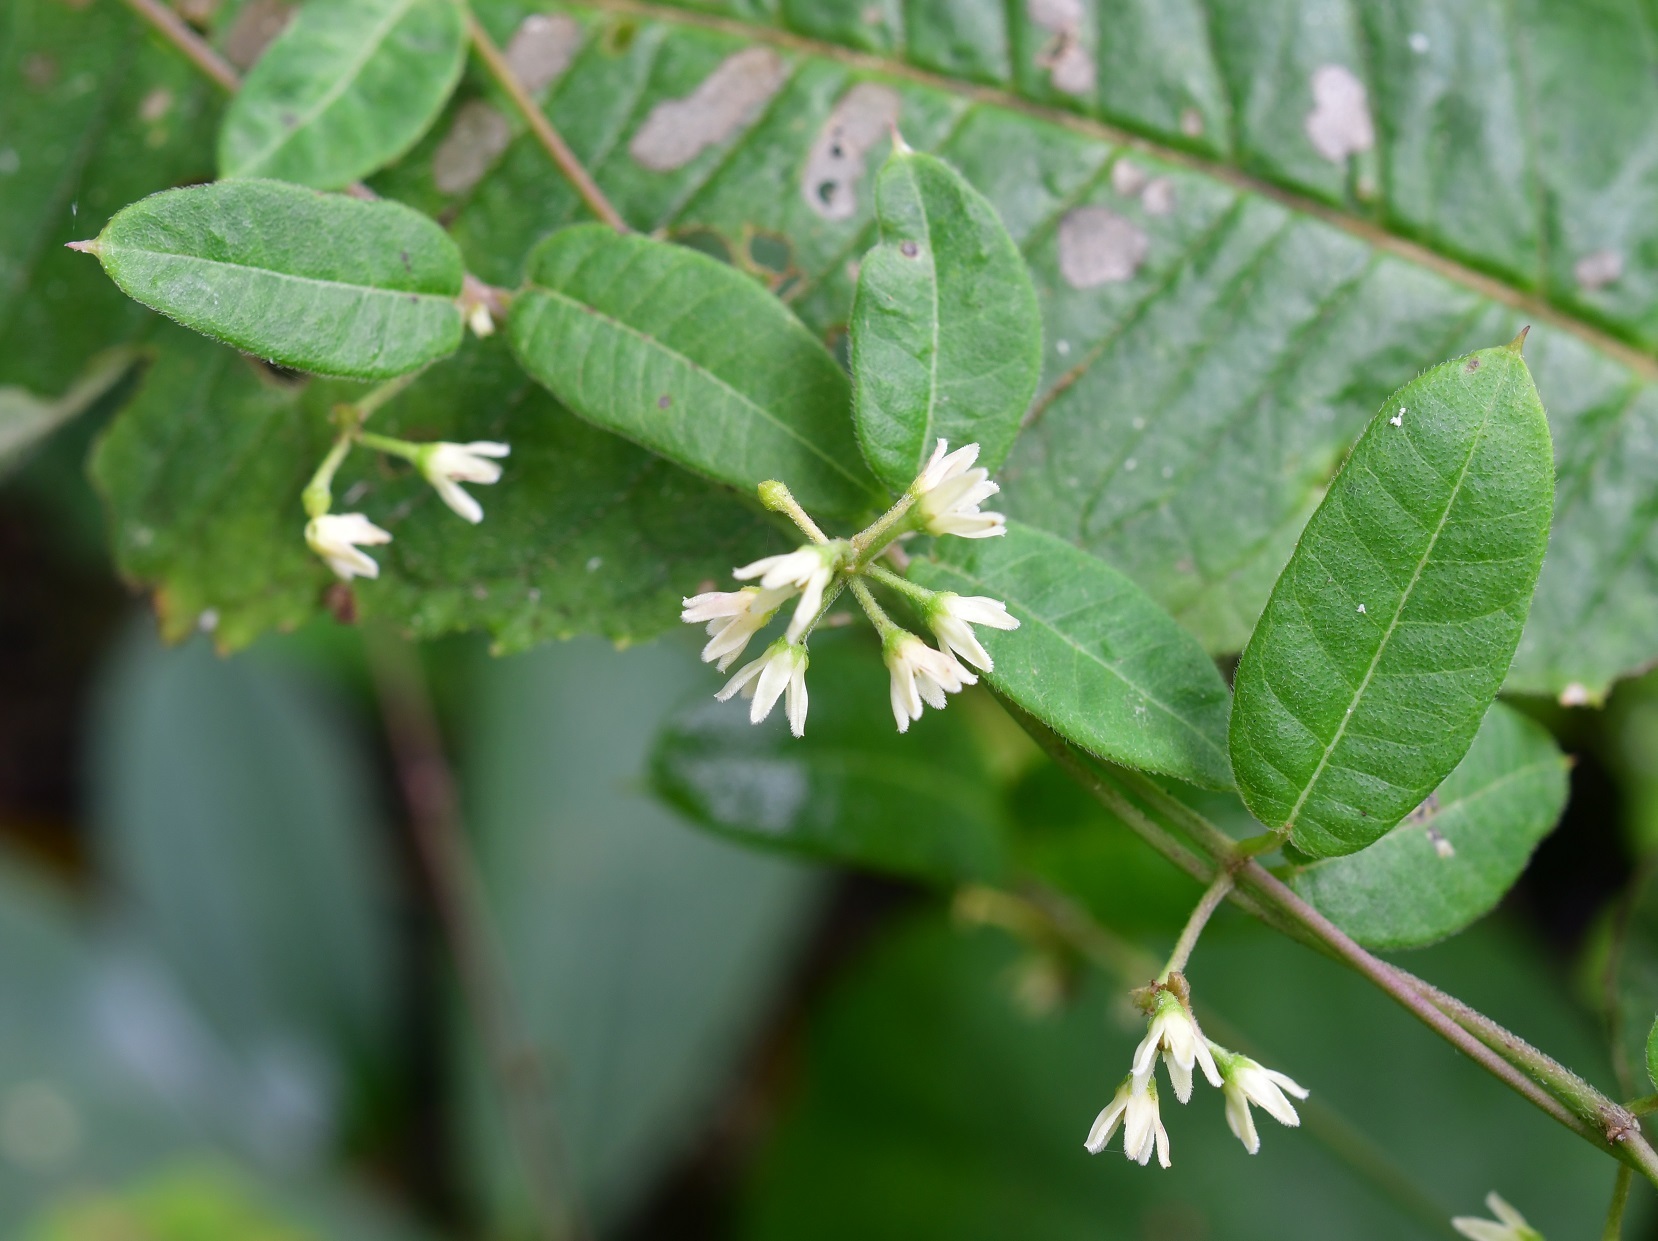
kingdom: Plantae
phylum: Tracheophyta
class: Magnoliopsida
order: Gentianales
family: Apocynaceae
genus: Metastelma
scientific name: Metastelma schlechtendalii
